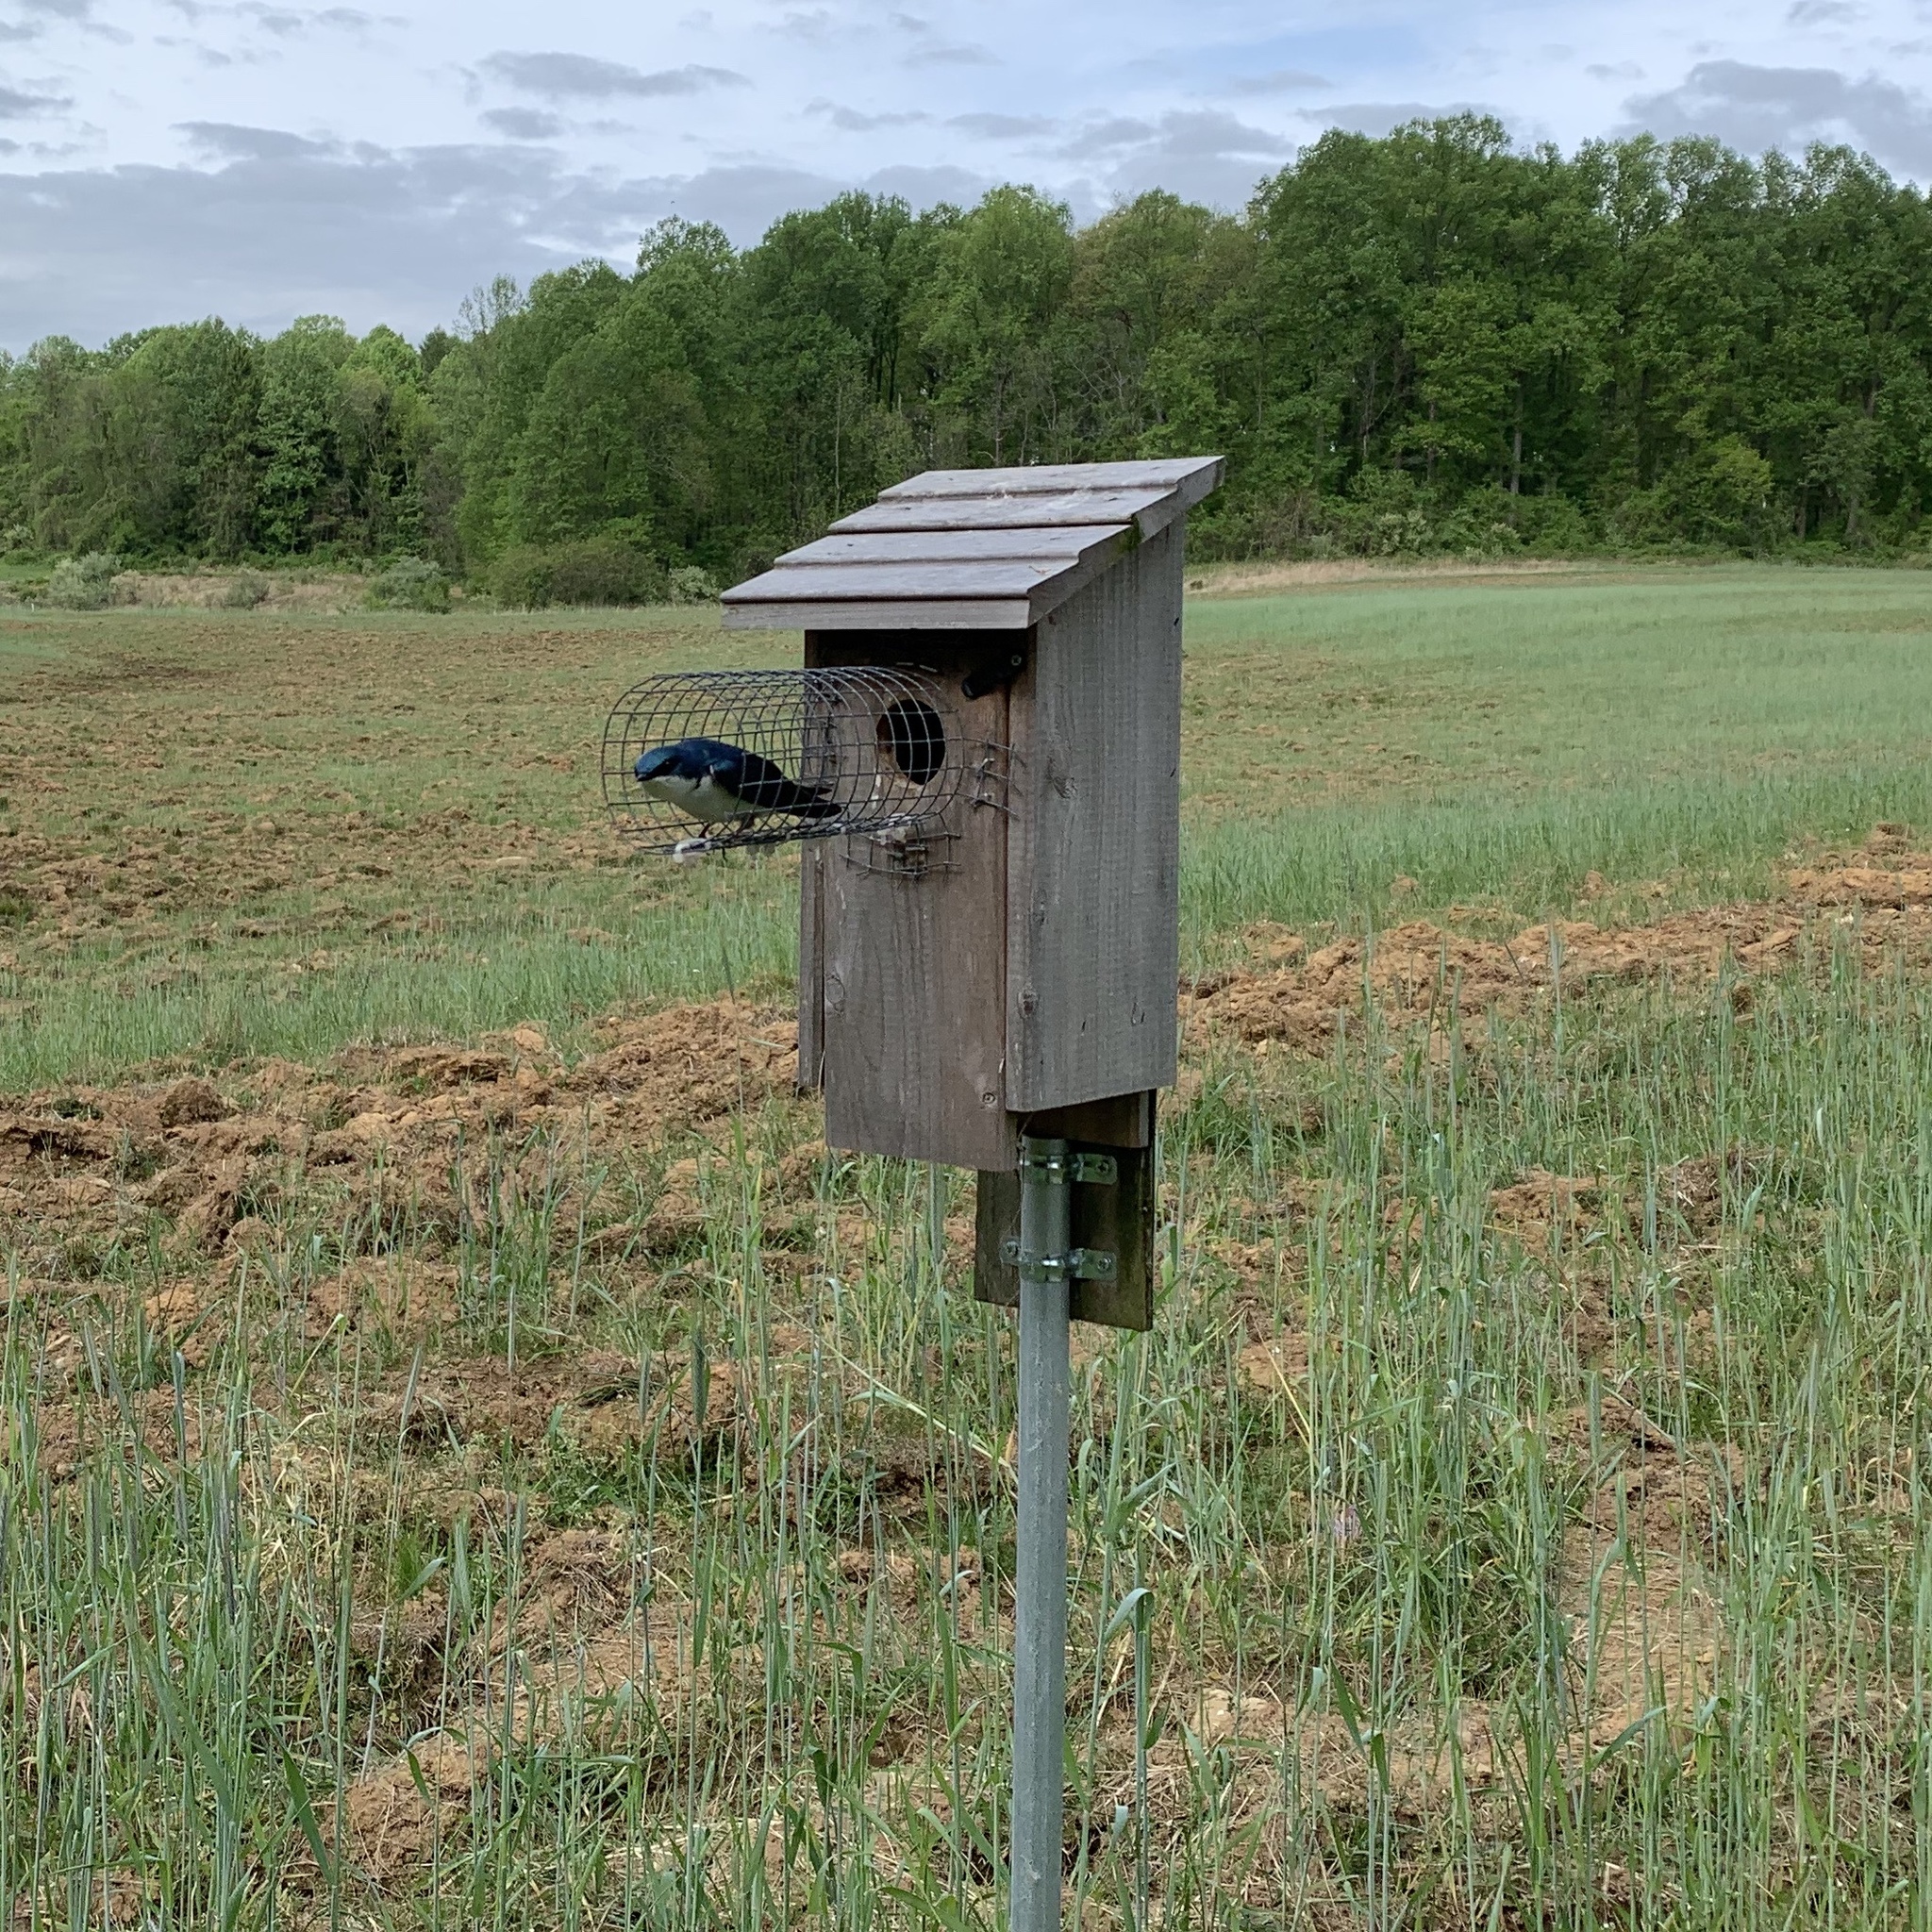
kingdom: Animalia
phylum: Chordata
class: Aves
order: Passeriformes
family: Hirundinidae
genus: Tachycineta
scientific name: Tachycineta bicolor
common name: Tree swallow
